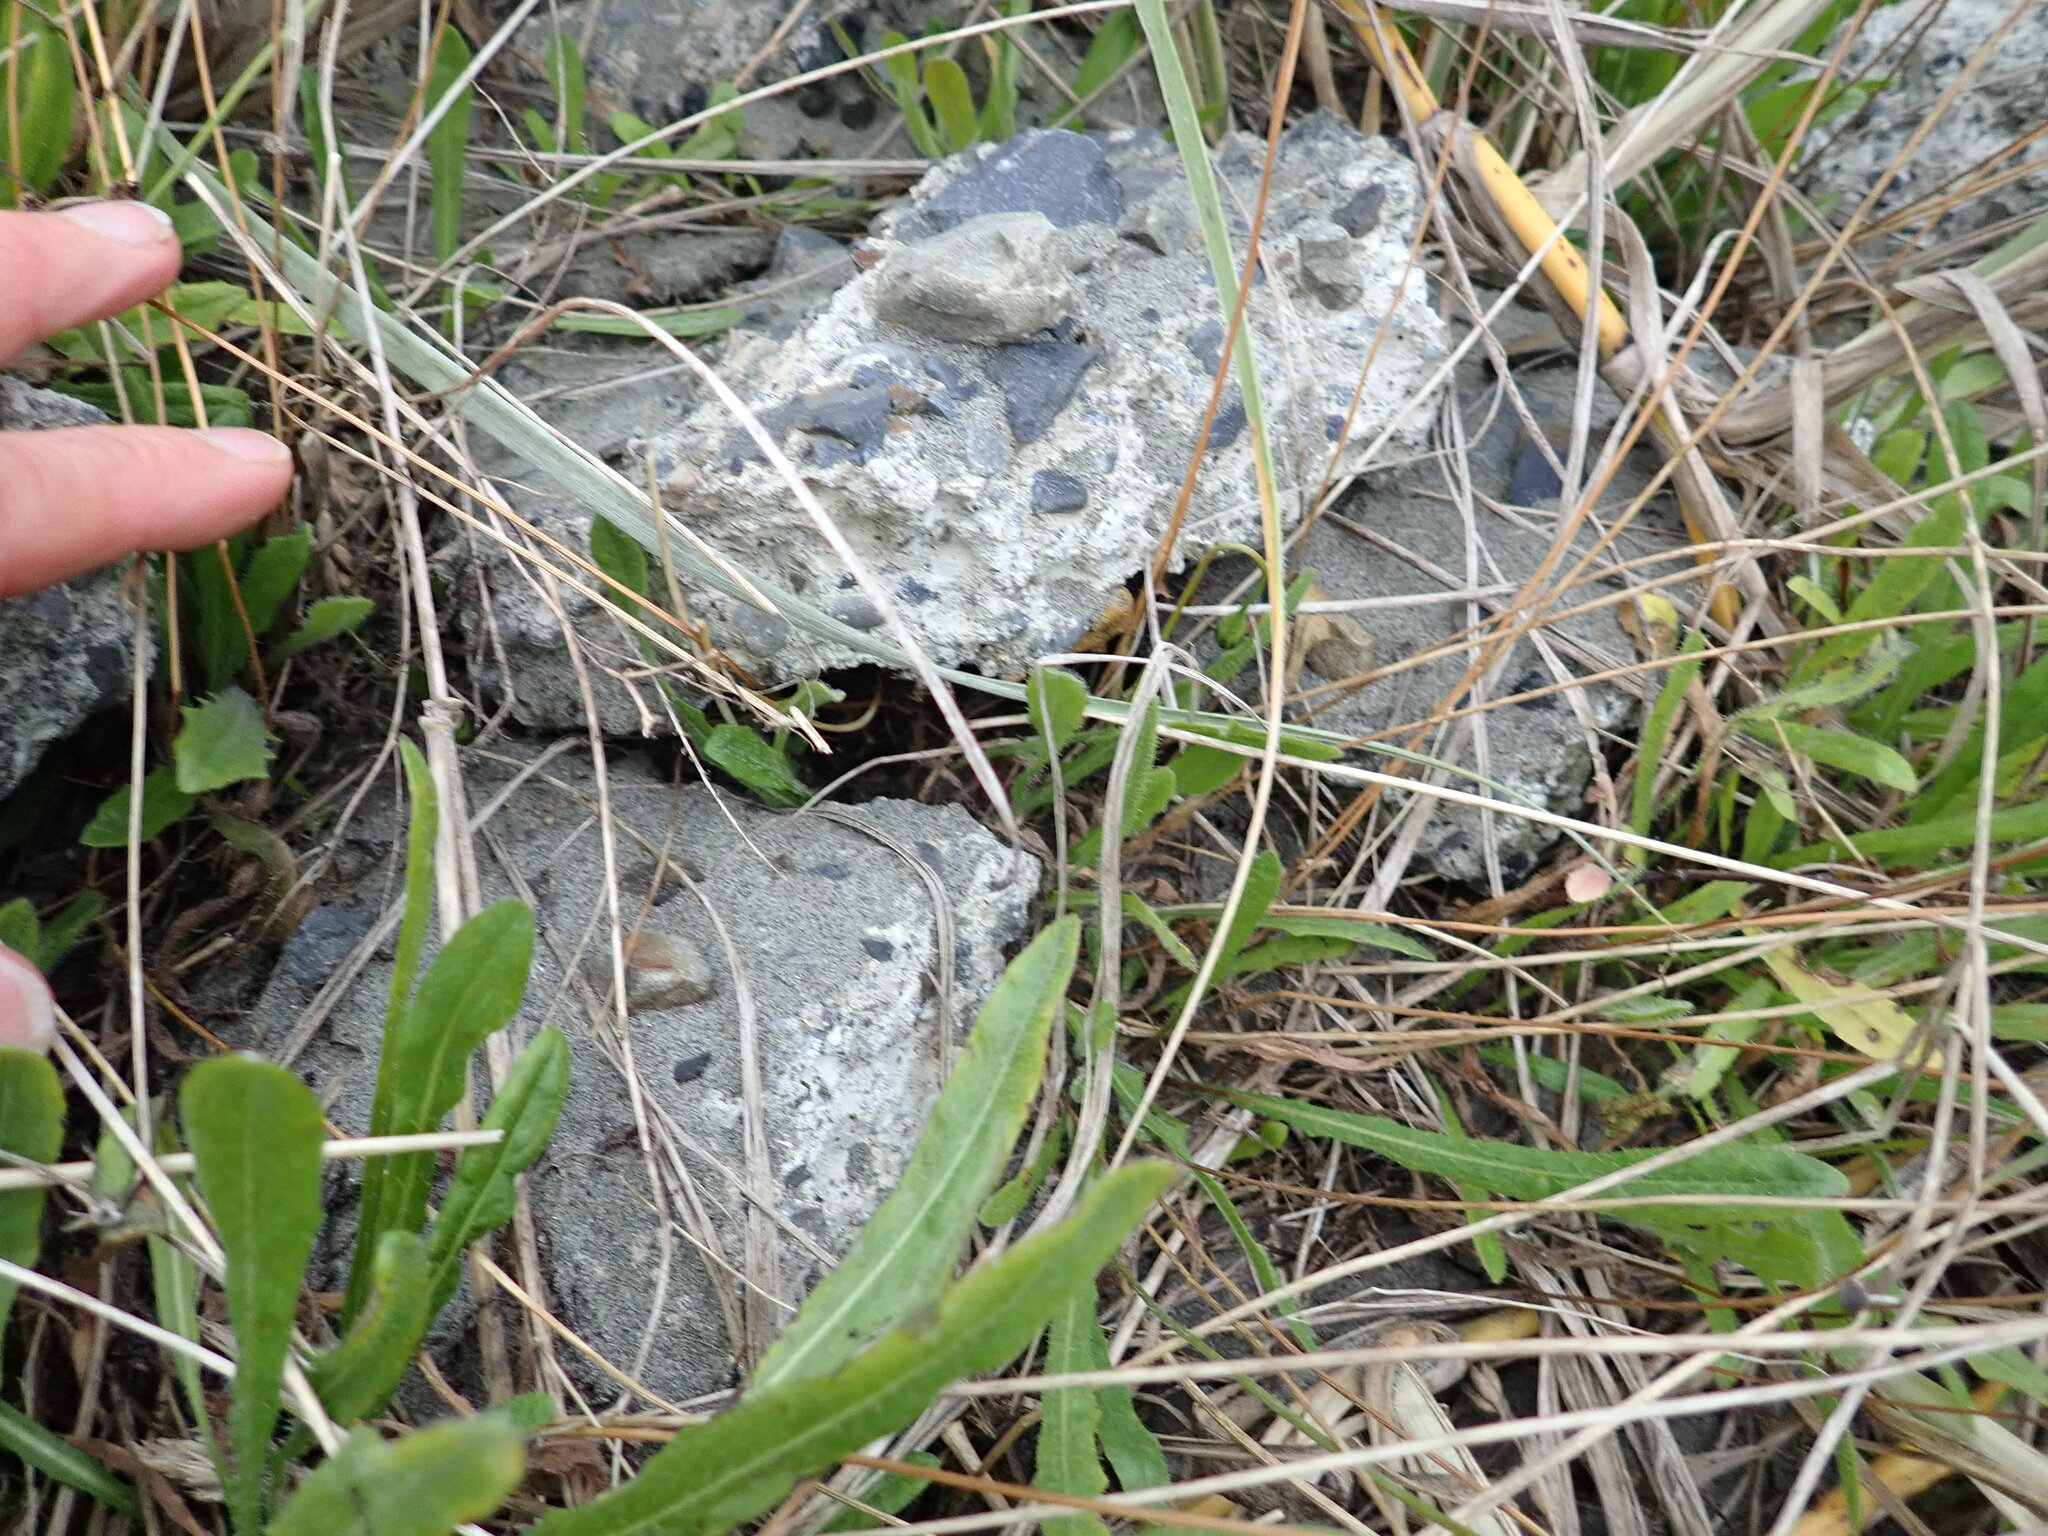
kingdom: Animalia
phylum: Arthropoda
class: Arachnida
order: Araneae
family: Theridiidae
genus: Steatoda
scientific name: Steatoda capensis
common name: Cobweb weaver
